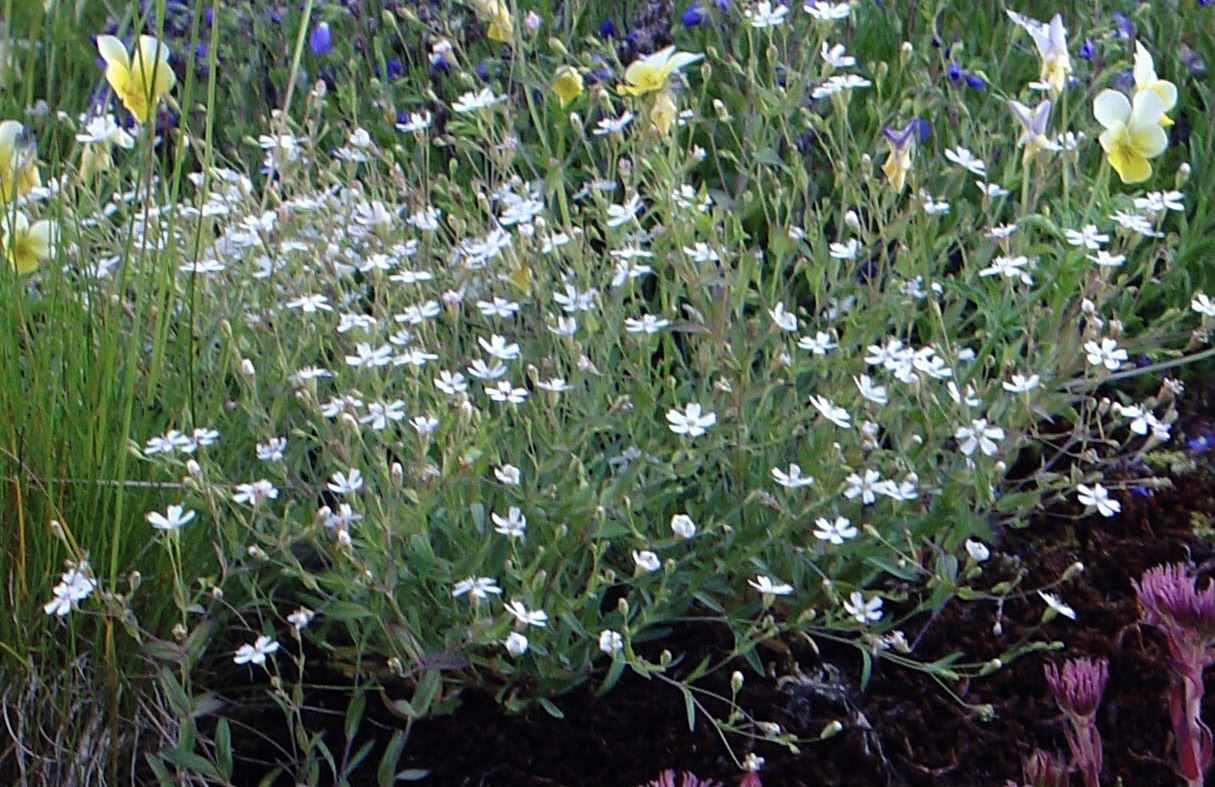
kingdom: Plantae
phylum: Tracheophyta
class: Magnoliopsida
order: Caryophyllales
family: Caryophyllaceae
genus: Atocion
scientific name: Atocion rupestre
